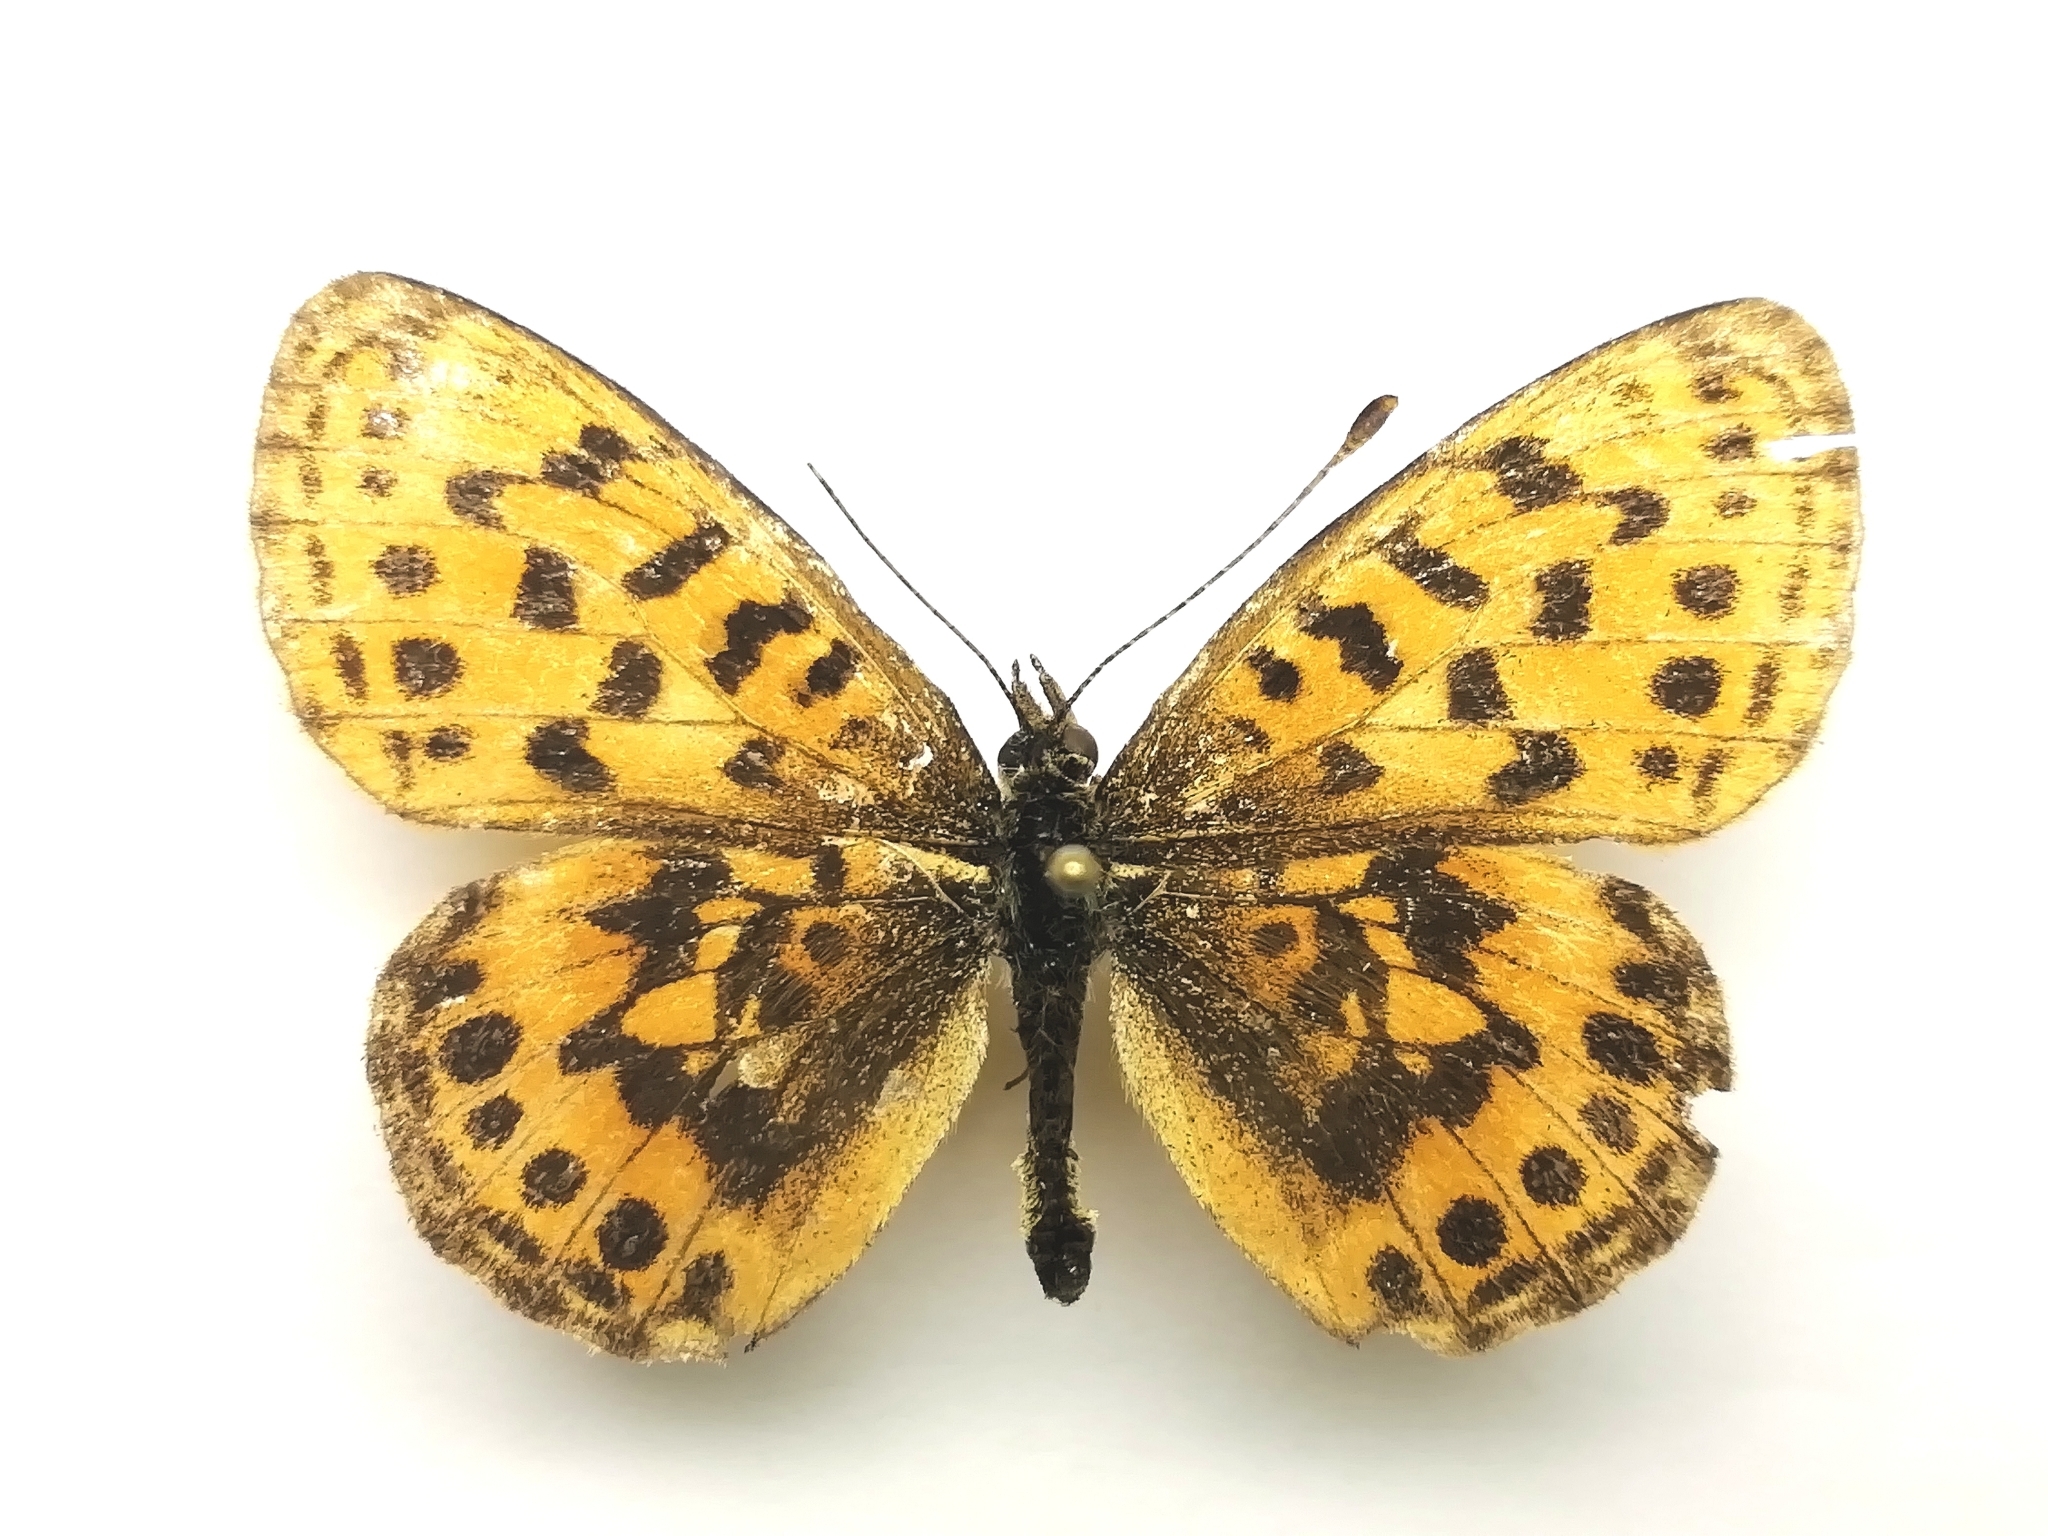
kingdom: Animalia
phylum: Arthropoda
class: Insecta
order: Lepidoptera
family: Nymphalidae
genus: Boloria
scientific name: Boloria thore
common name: Thor's fritillary
